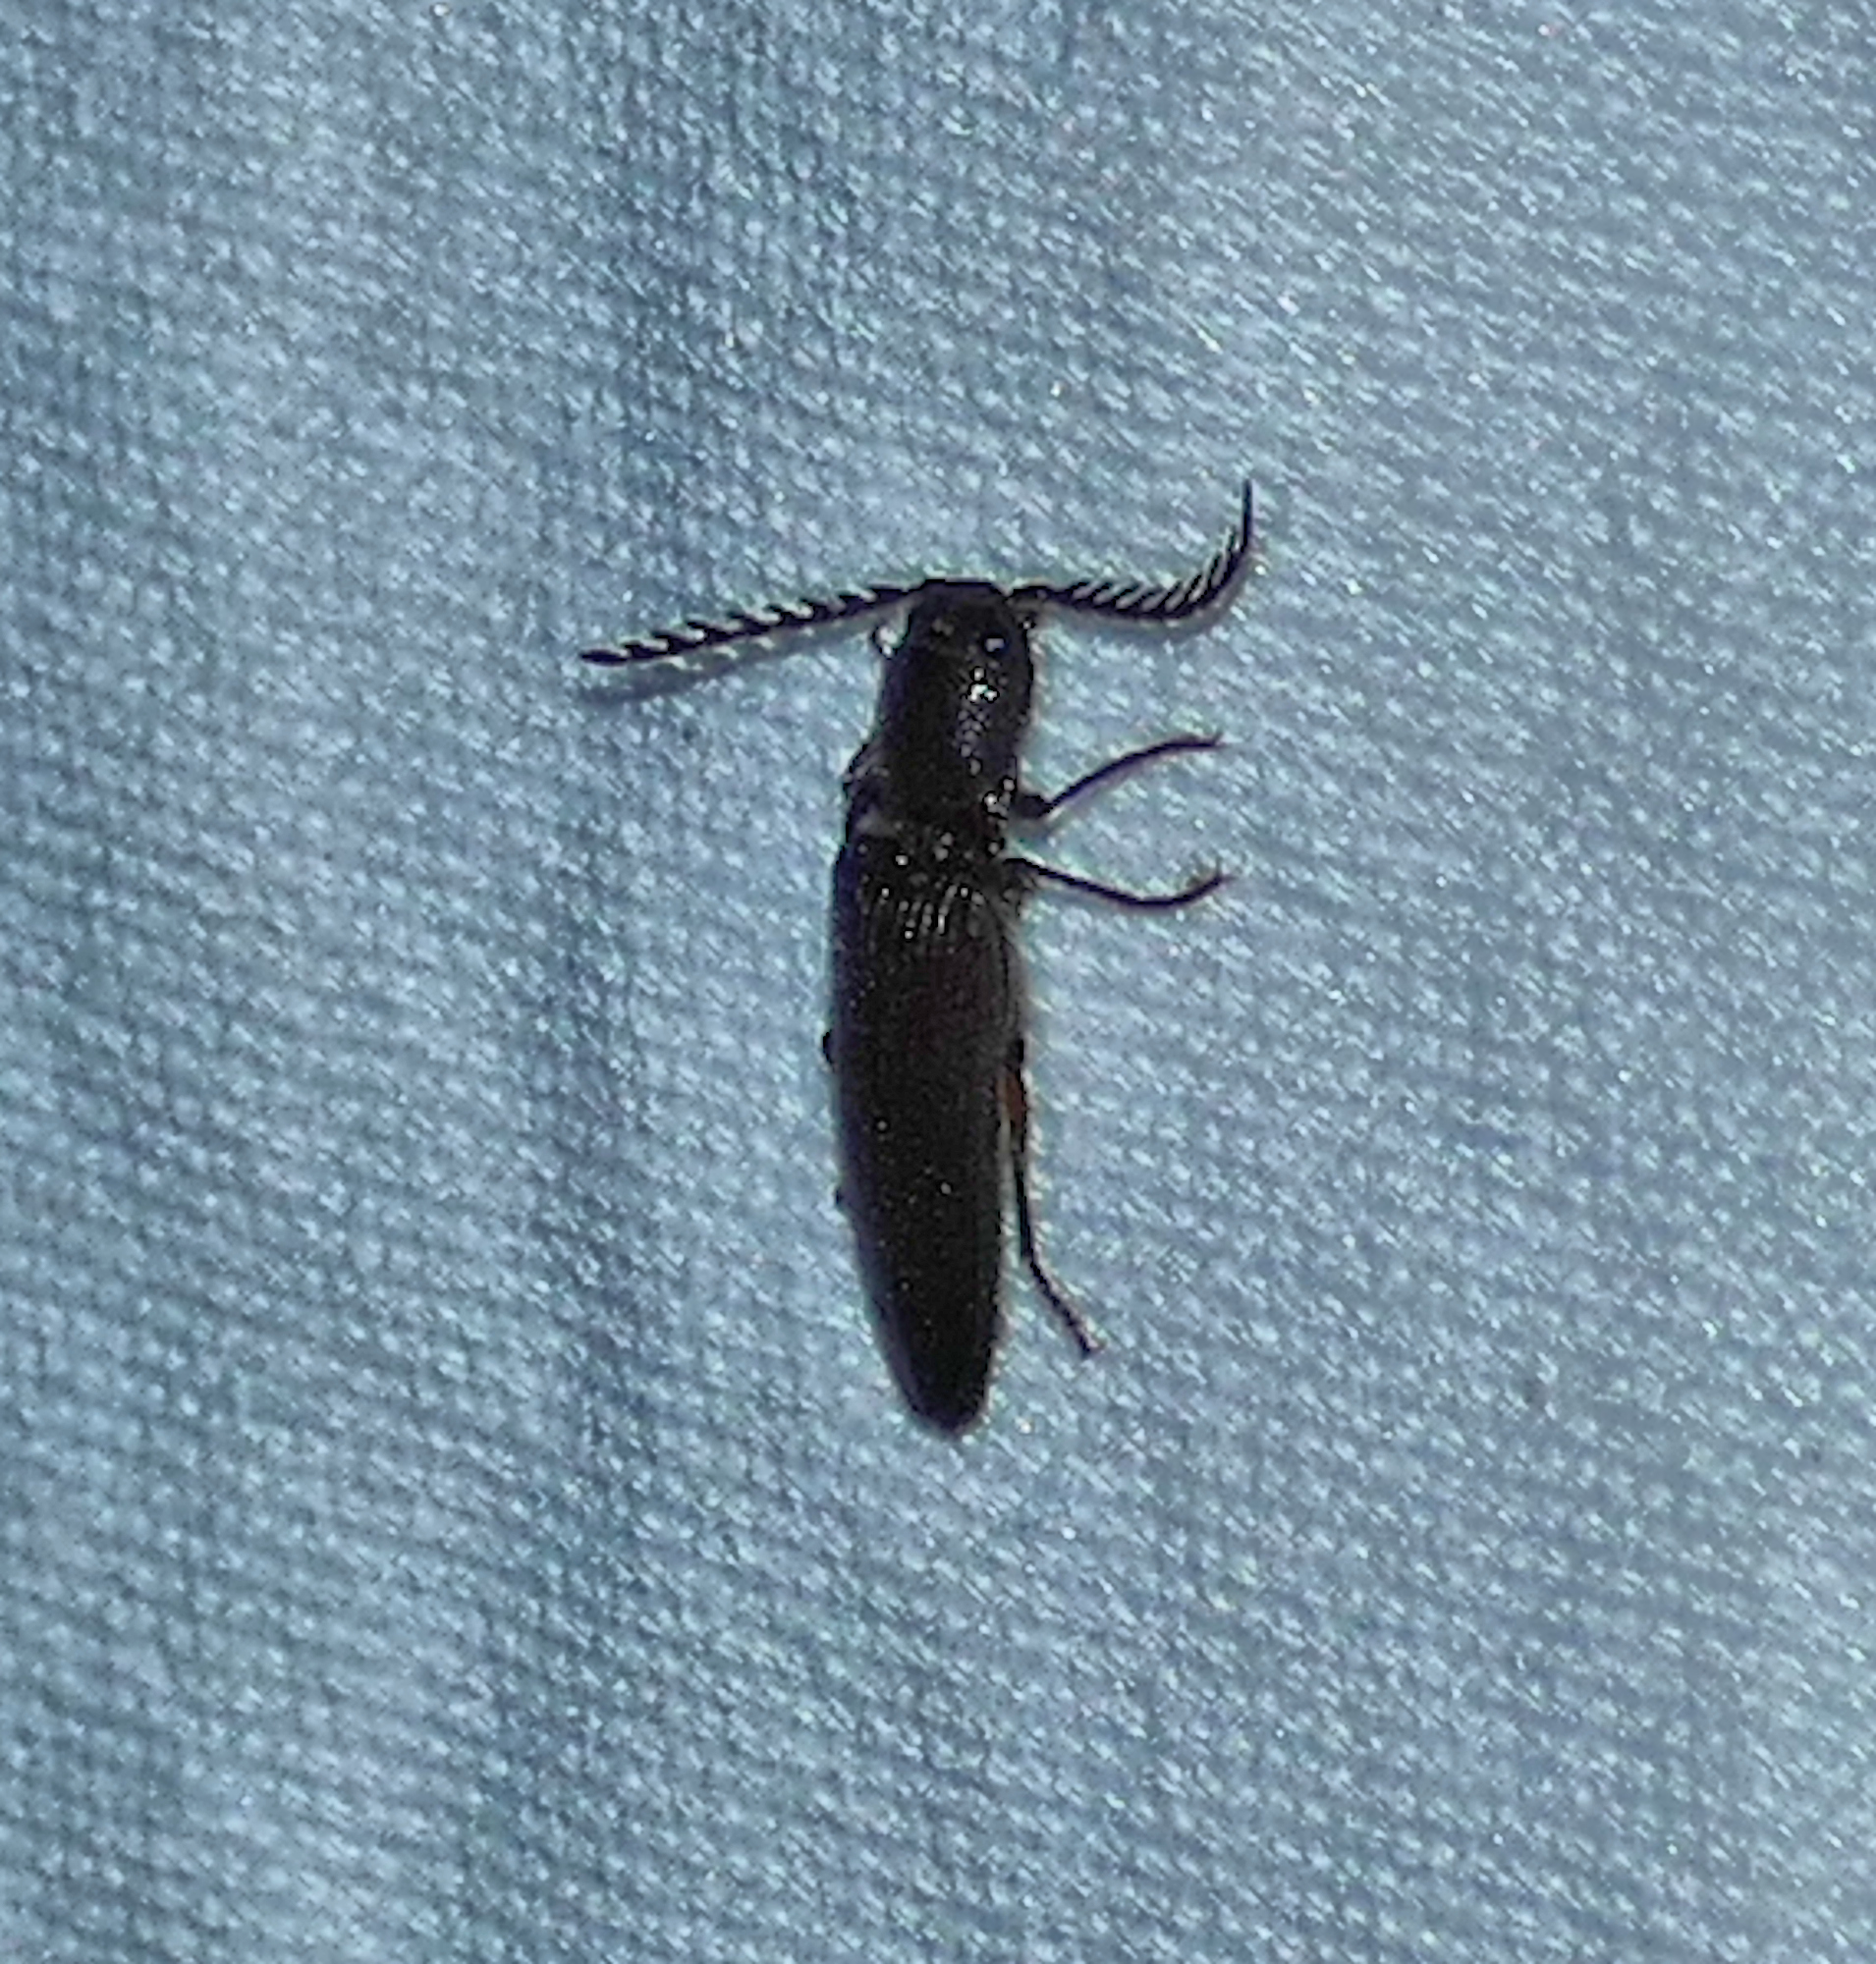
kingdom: Animalia
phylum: Arthropoda
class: Insecta
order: Coleoptera
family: Elateridae
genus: Dicrepidius
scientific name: Dicrepidius corvinus
